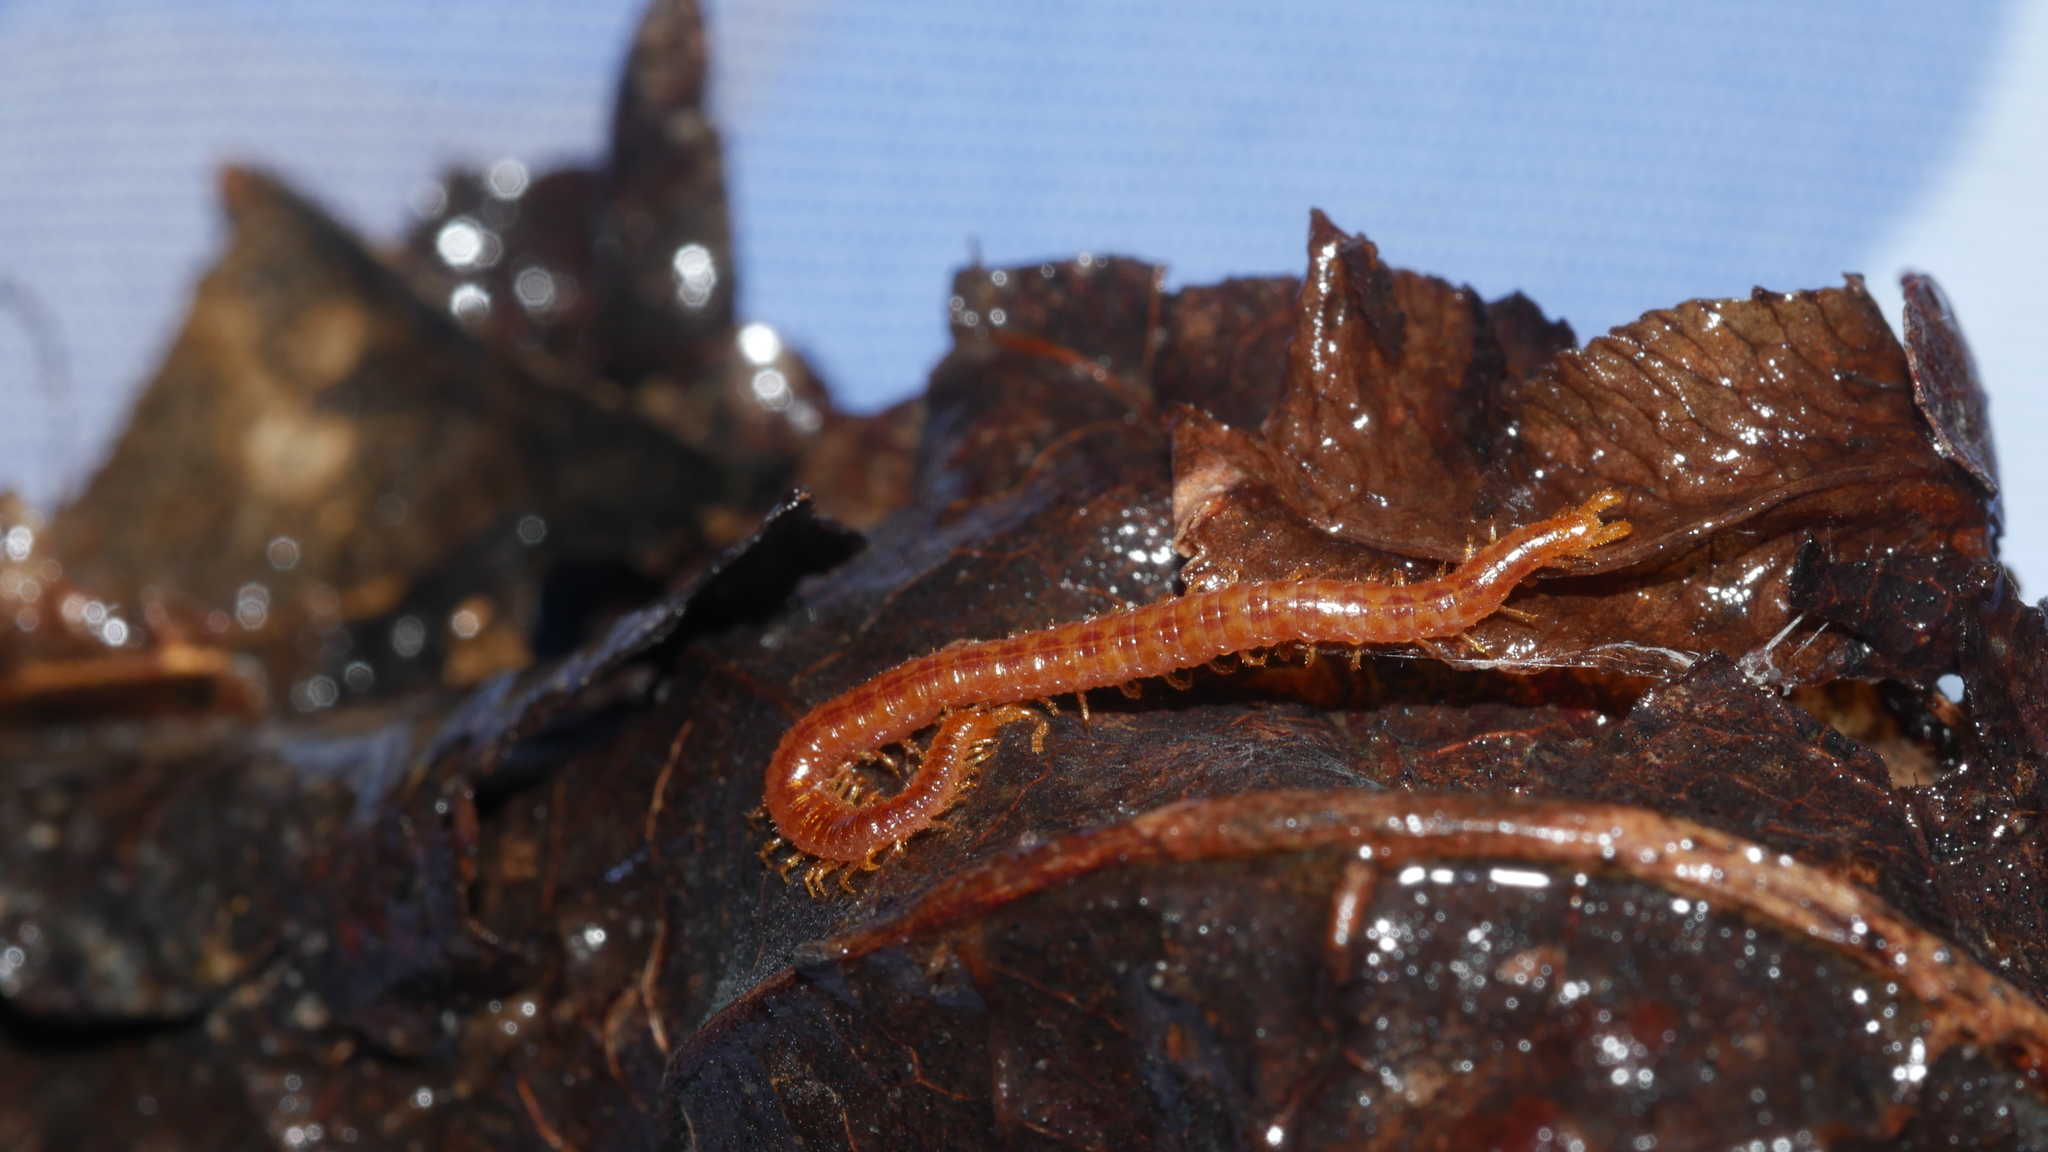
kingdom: Animalia
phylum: Arthropoda
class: Chilopoda
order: Geophilomorpha
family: Linotaeniidae
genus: Strigamia
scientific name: Strigamia branneri
